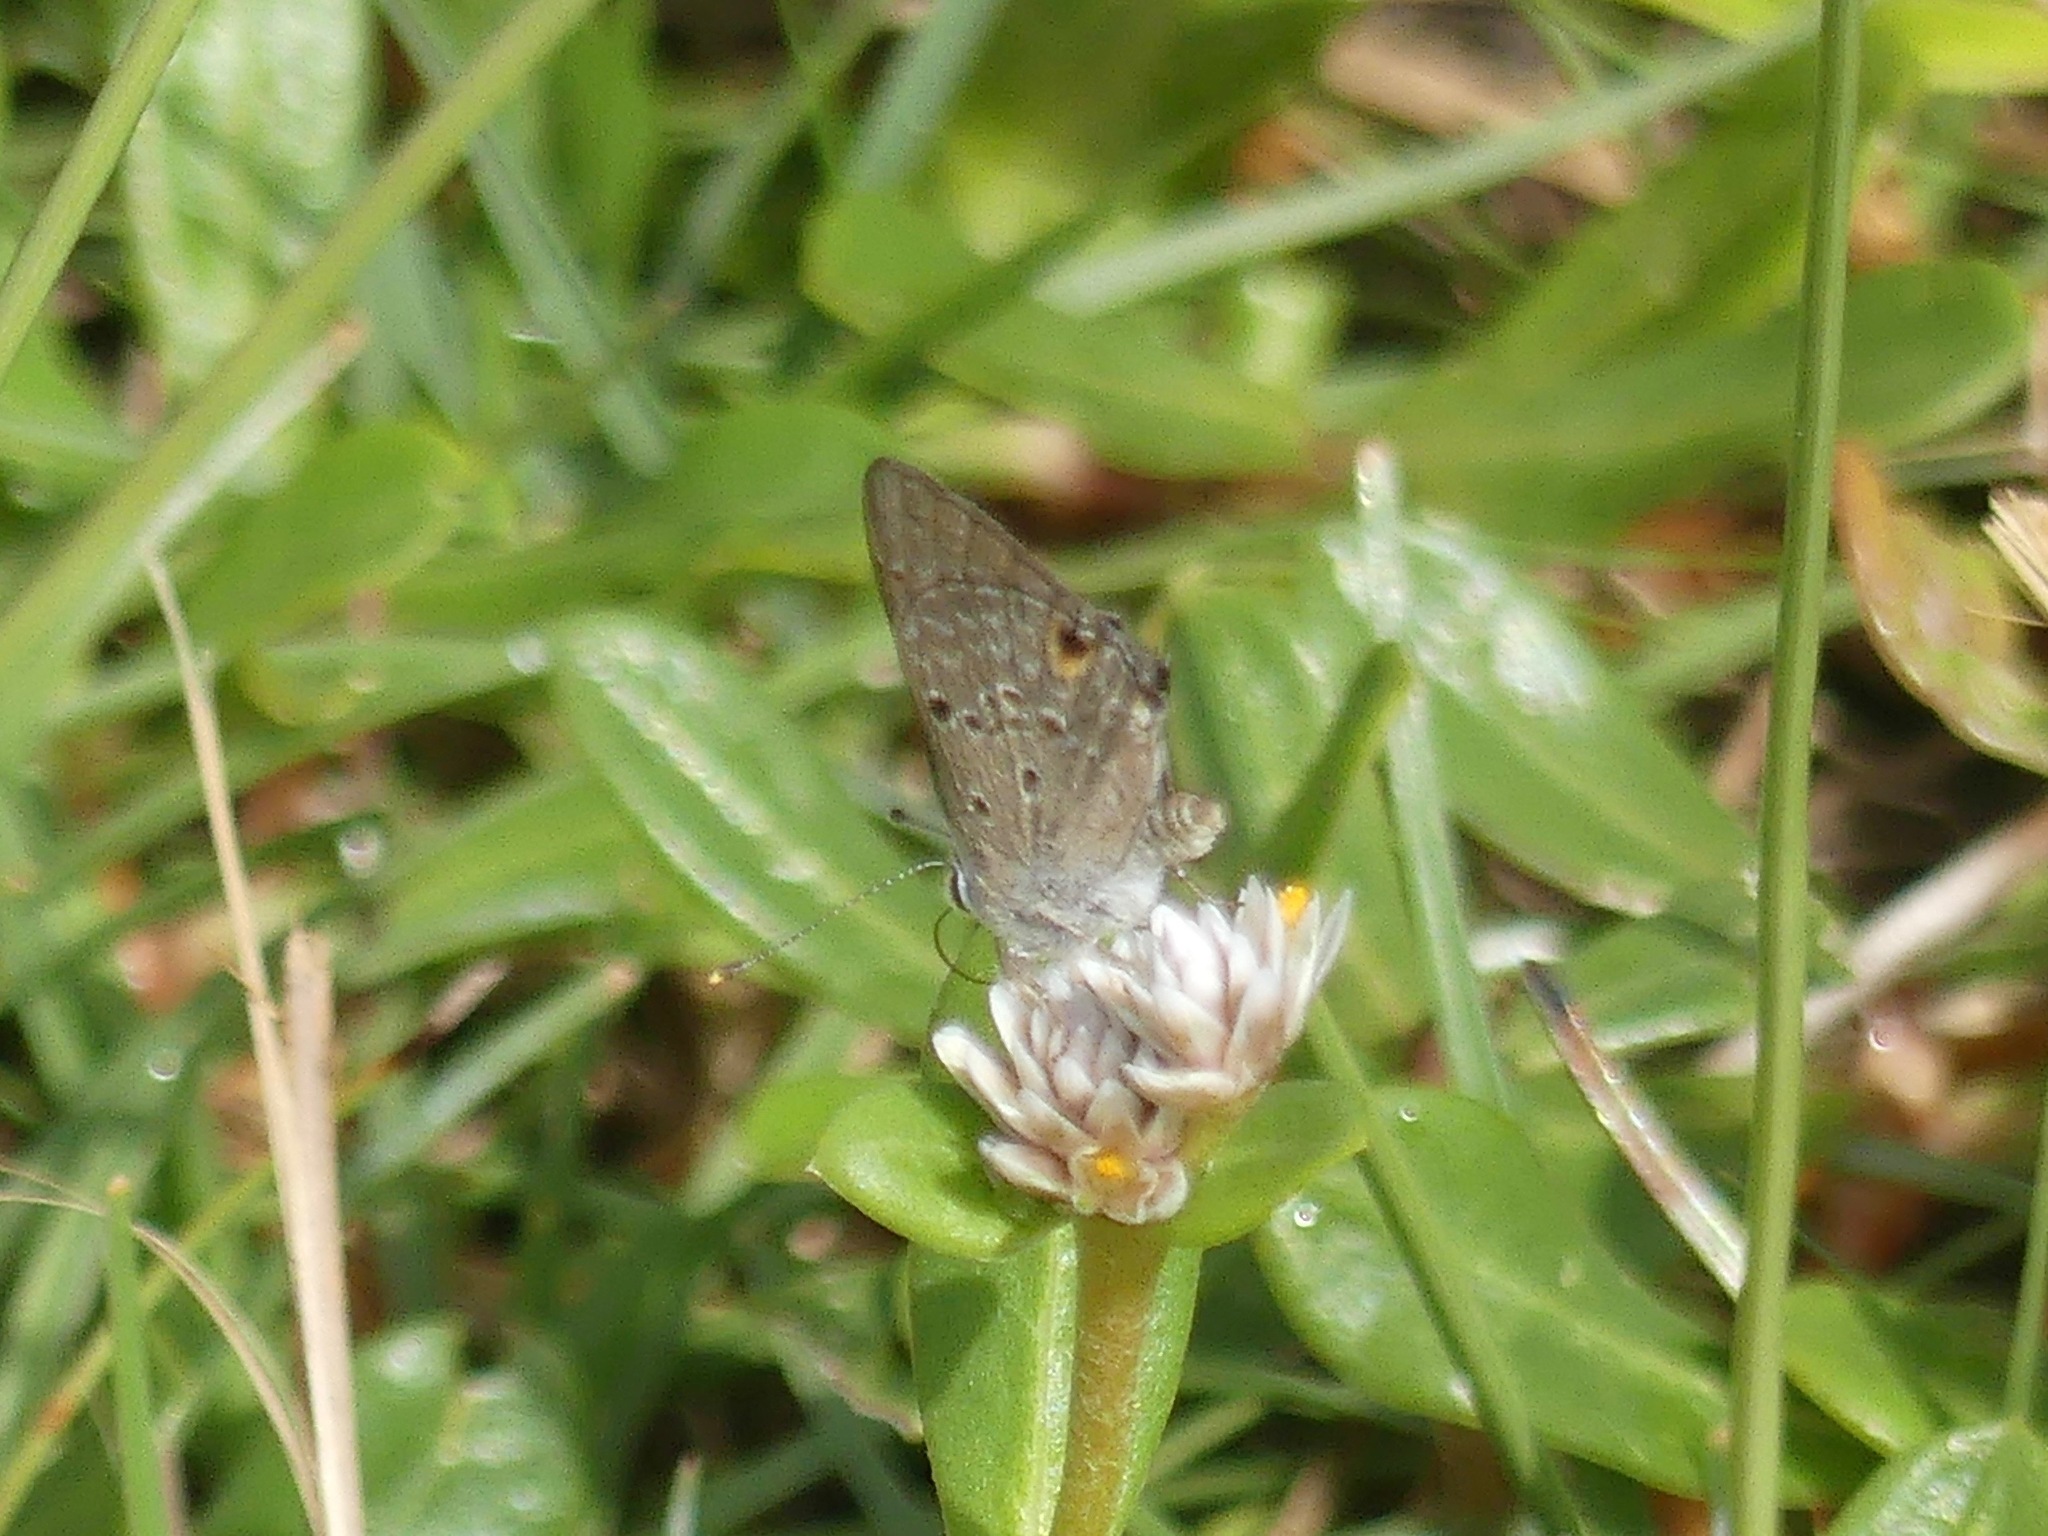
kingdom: Animalia
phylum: Arthropoda
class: Insecta
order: Lepidoptera
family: Lycaenidae
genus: Strymon
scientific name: Strymon bubastus
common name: Bubastes hairstreak
